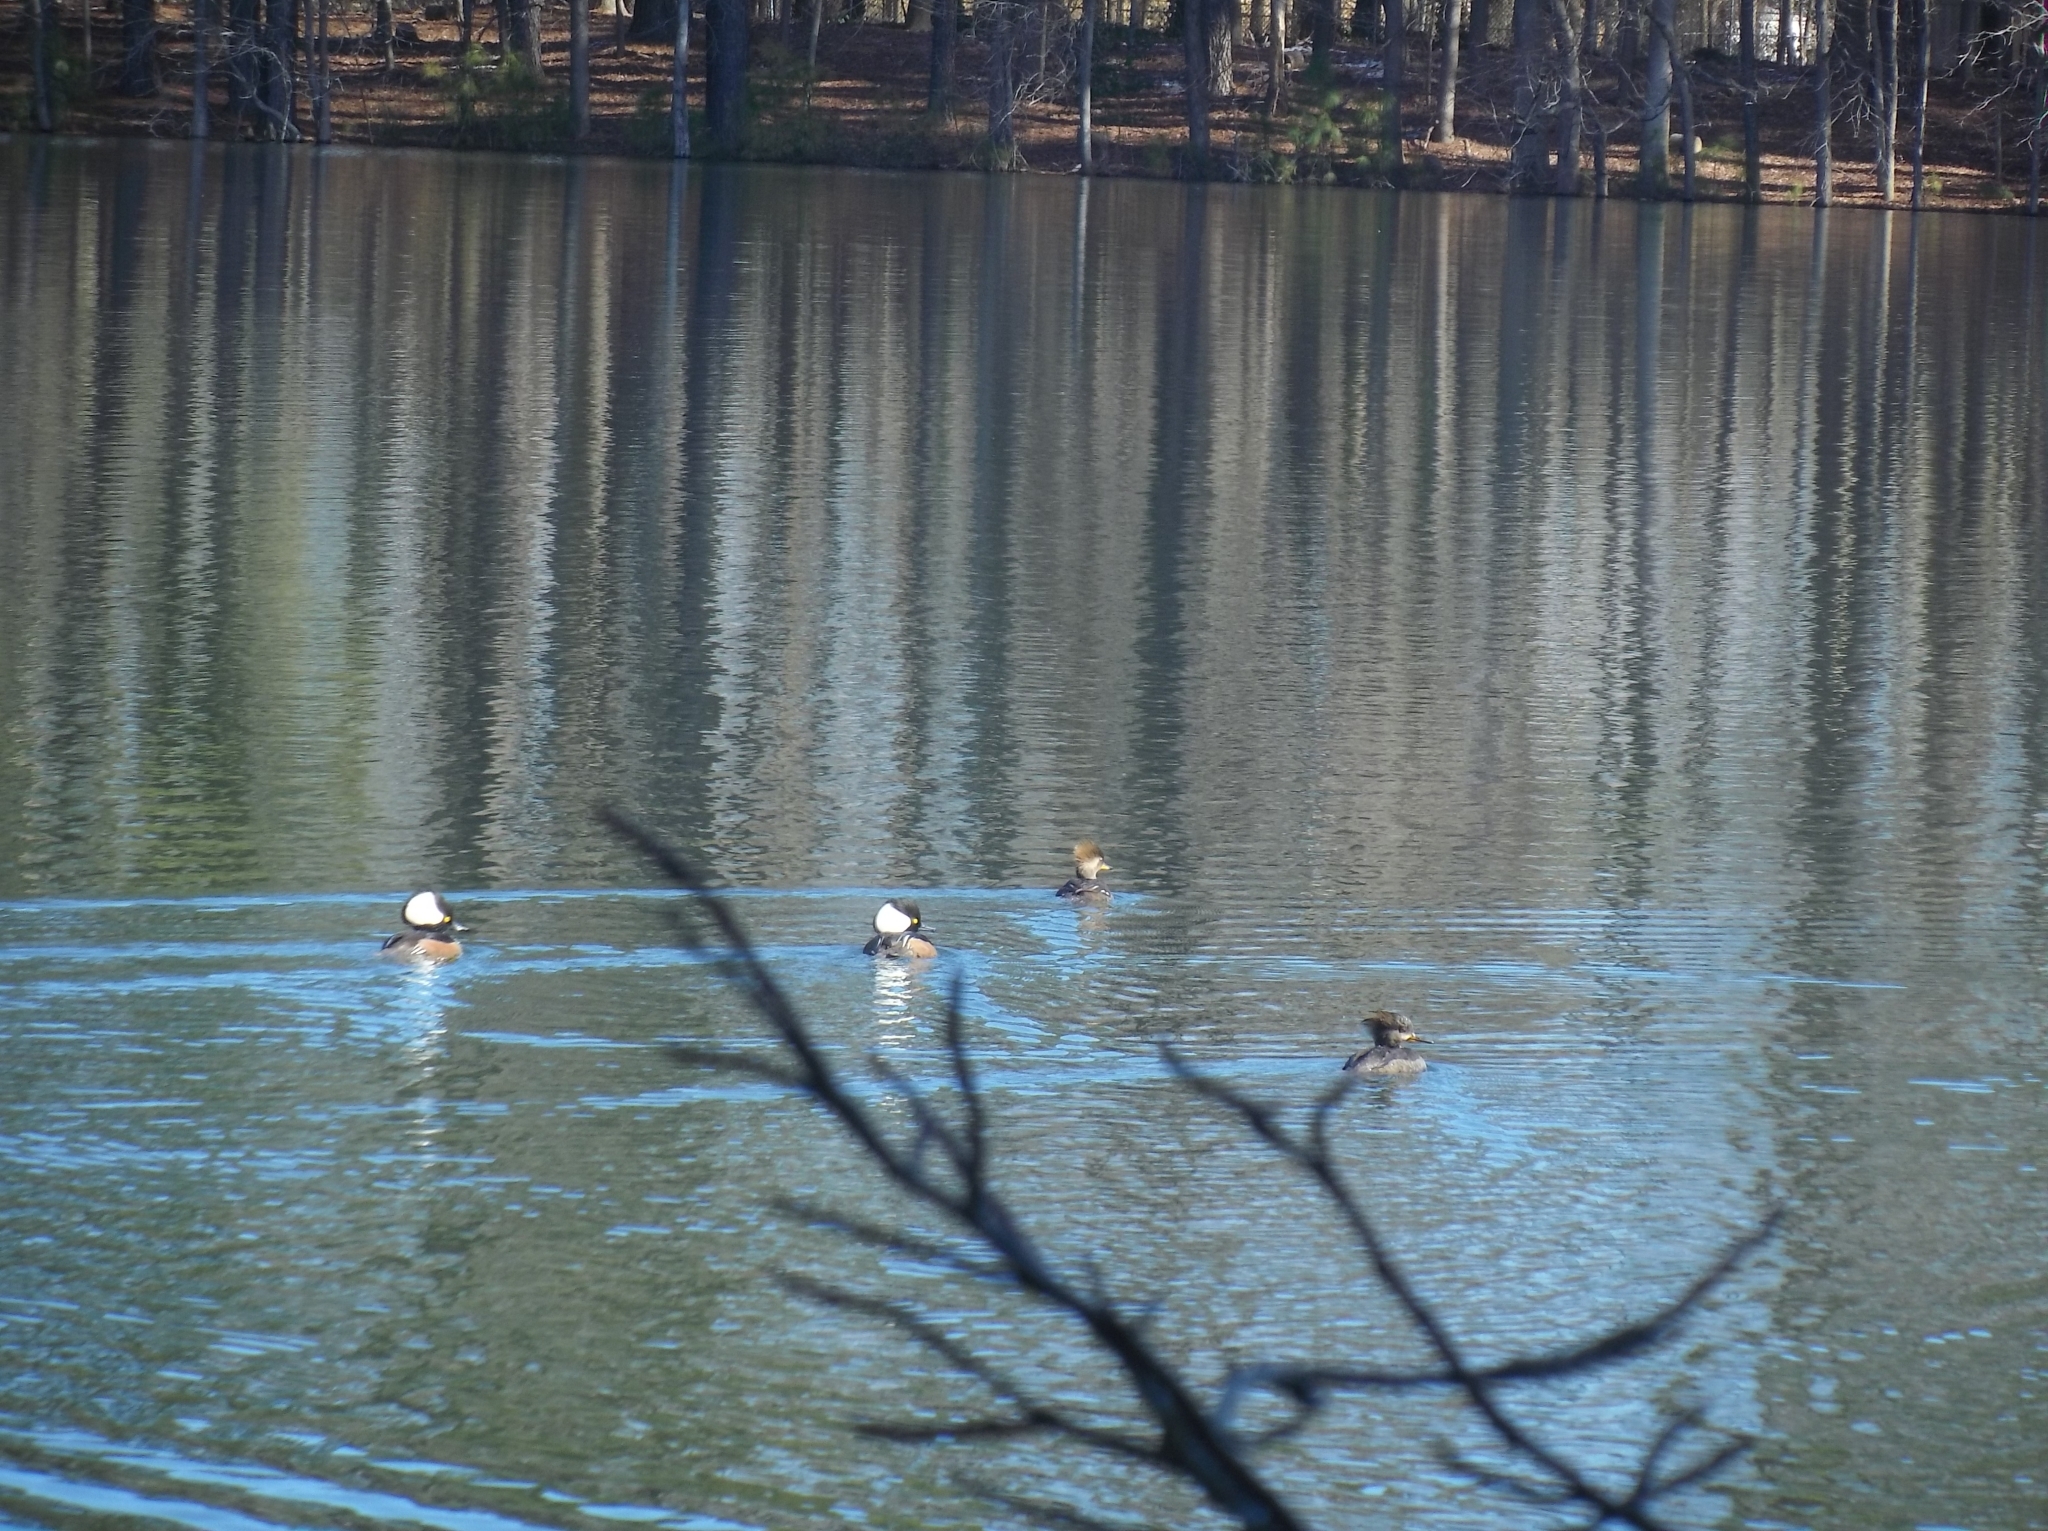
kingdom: Animalia
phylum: Chordata
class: Aves
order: Anseriformes
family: Anatidae
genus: Lophodytes
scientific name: Lophodytes cucullatus
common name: Hooded merganser
